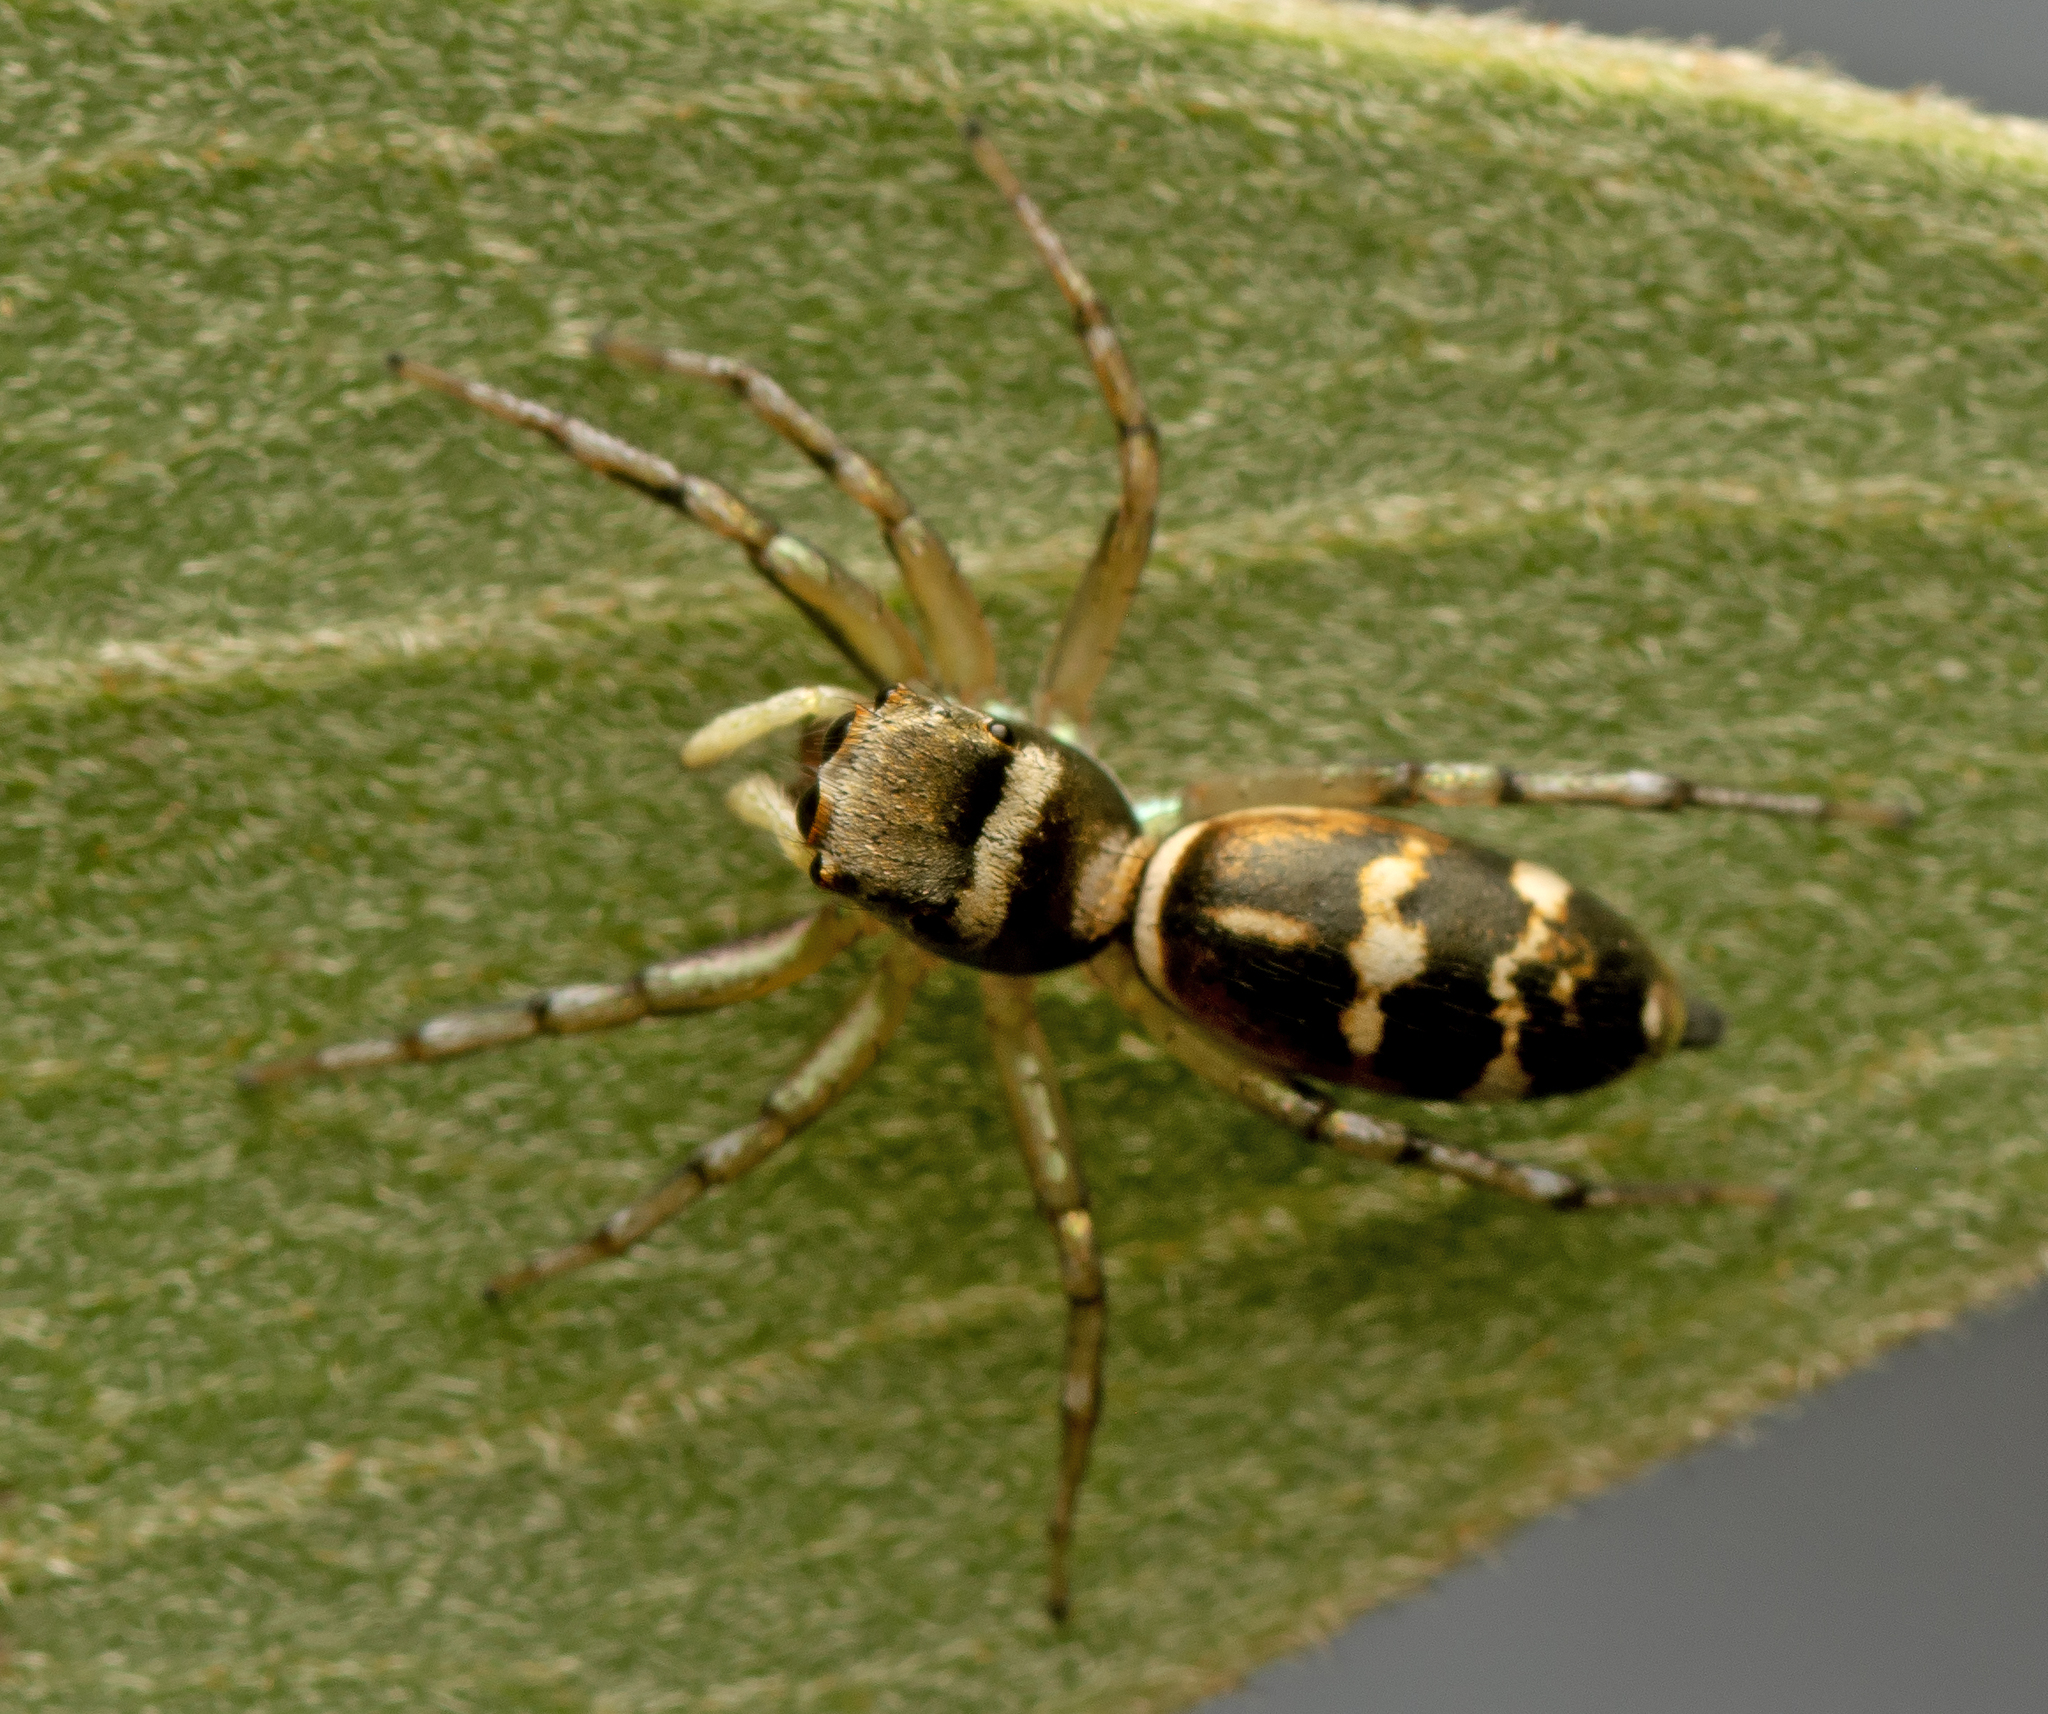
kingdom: Animalia
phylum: Arthropoda
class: Arachnida
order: Araneae
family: Salticidae
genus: Cosmophasis
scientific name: Cosmophasis baehrae
